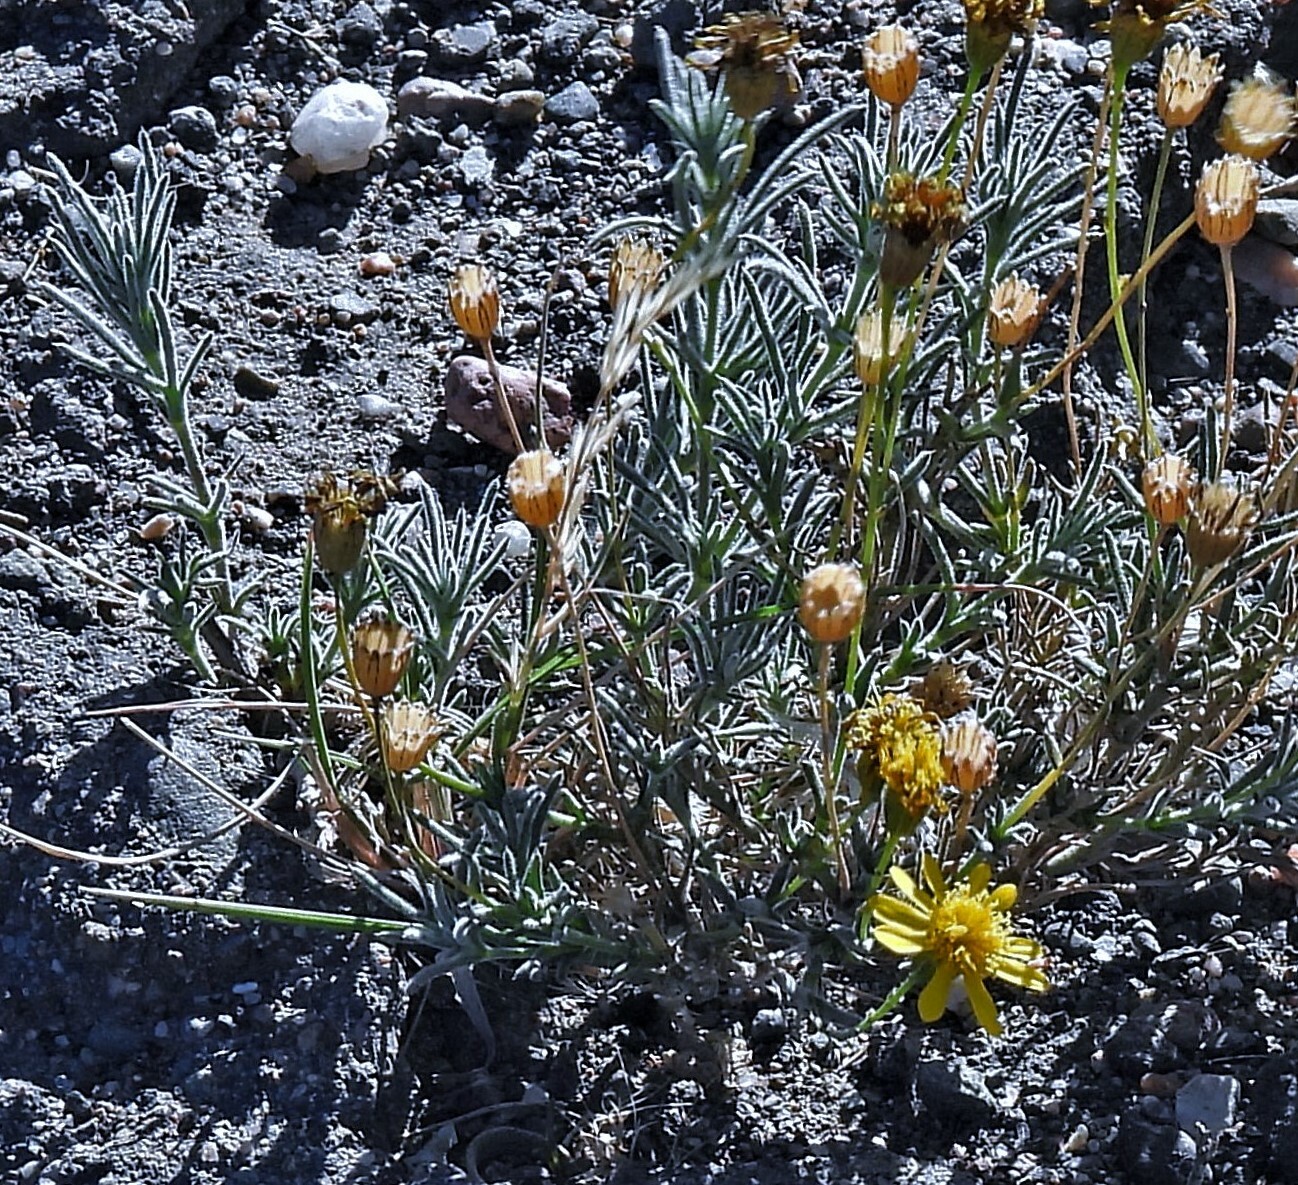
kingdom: Plantae
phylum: Tracheophyta
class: Magnoliopsida
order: Asterales
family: Asteraceae
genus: Thymophylla
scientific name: Thymophylla pentachaeta
